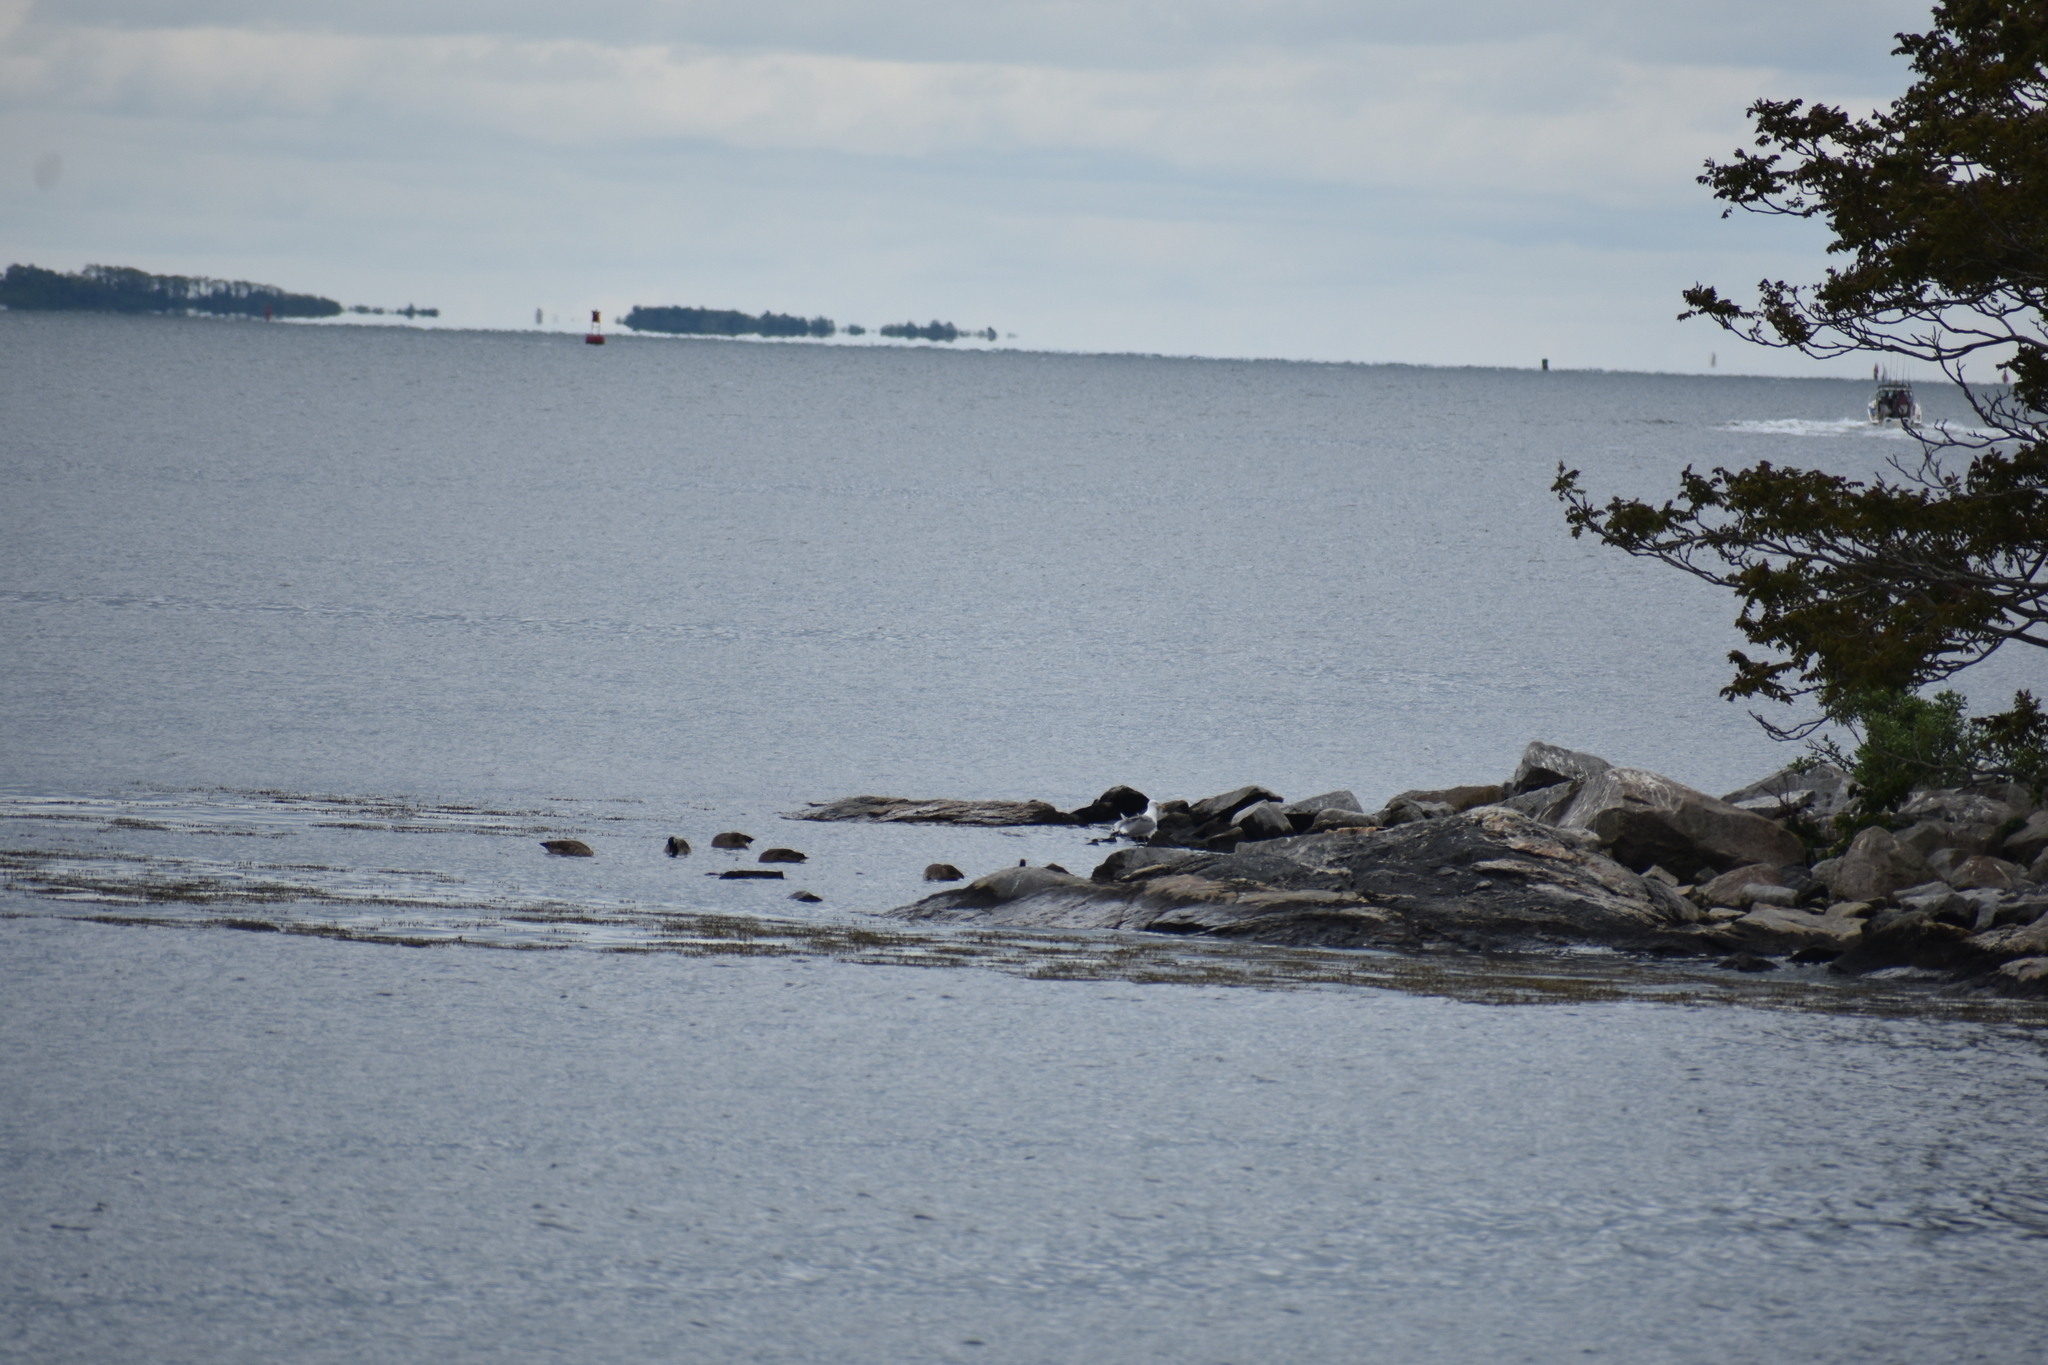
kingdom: Animalia
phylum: Chordata
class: Aves
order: Charadriiformes
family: Laridae
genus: Larus
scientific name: Larus argentatus
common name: Herring gull
